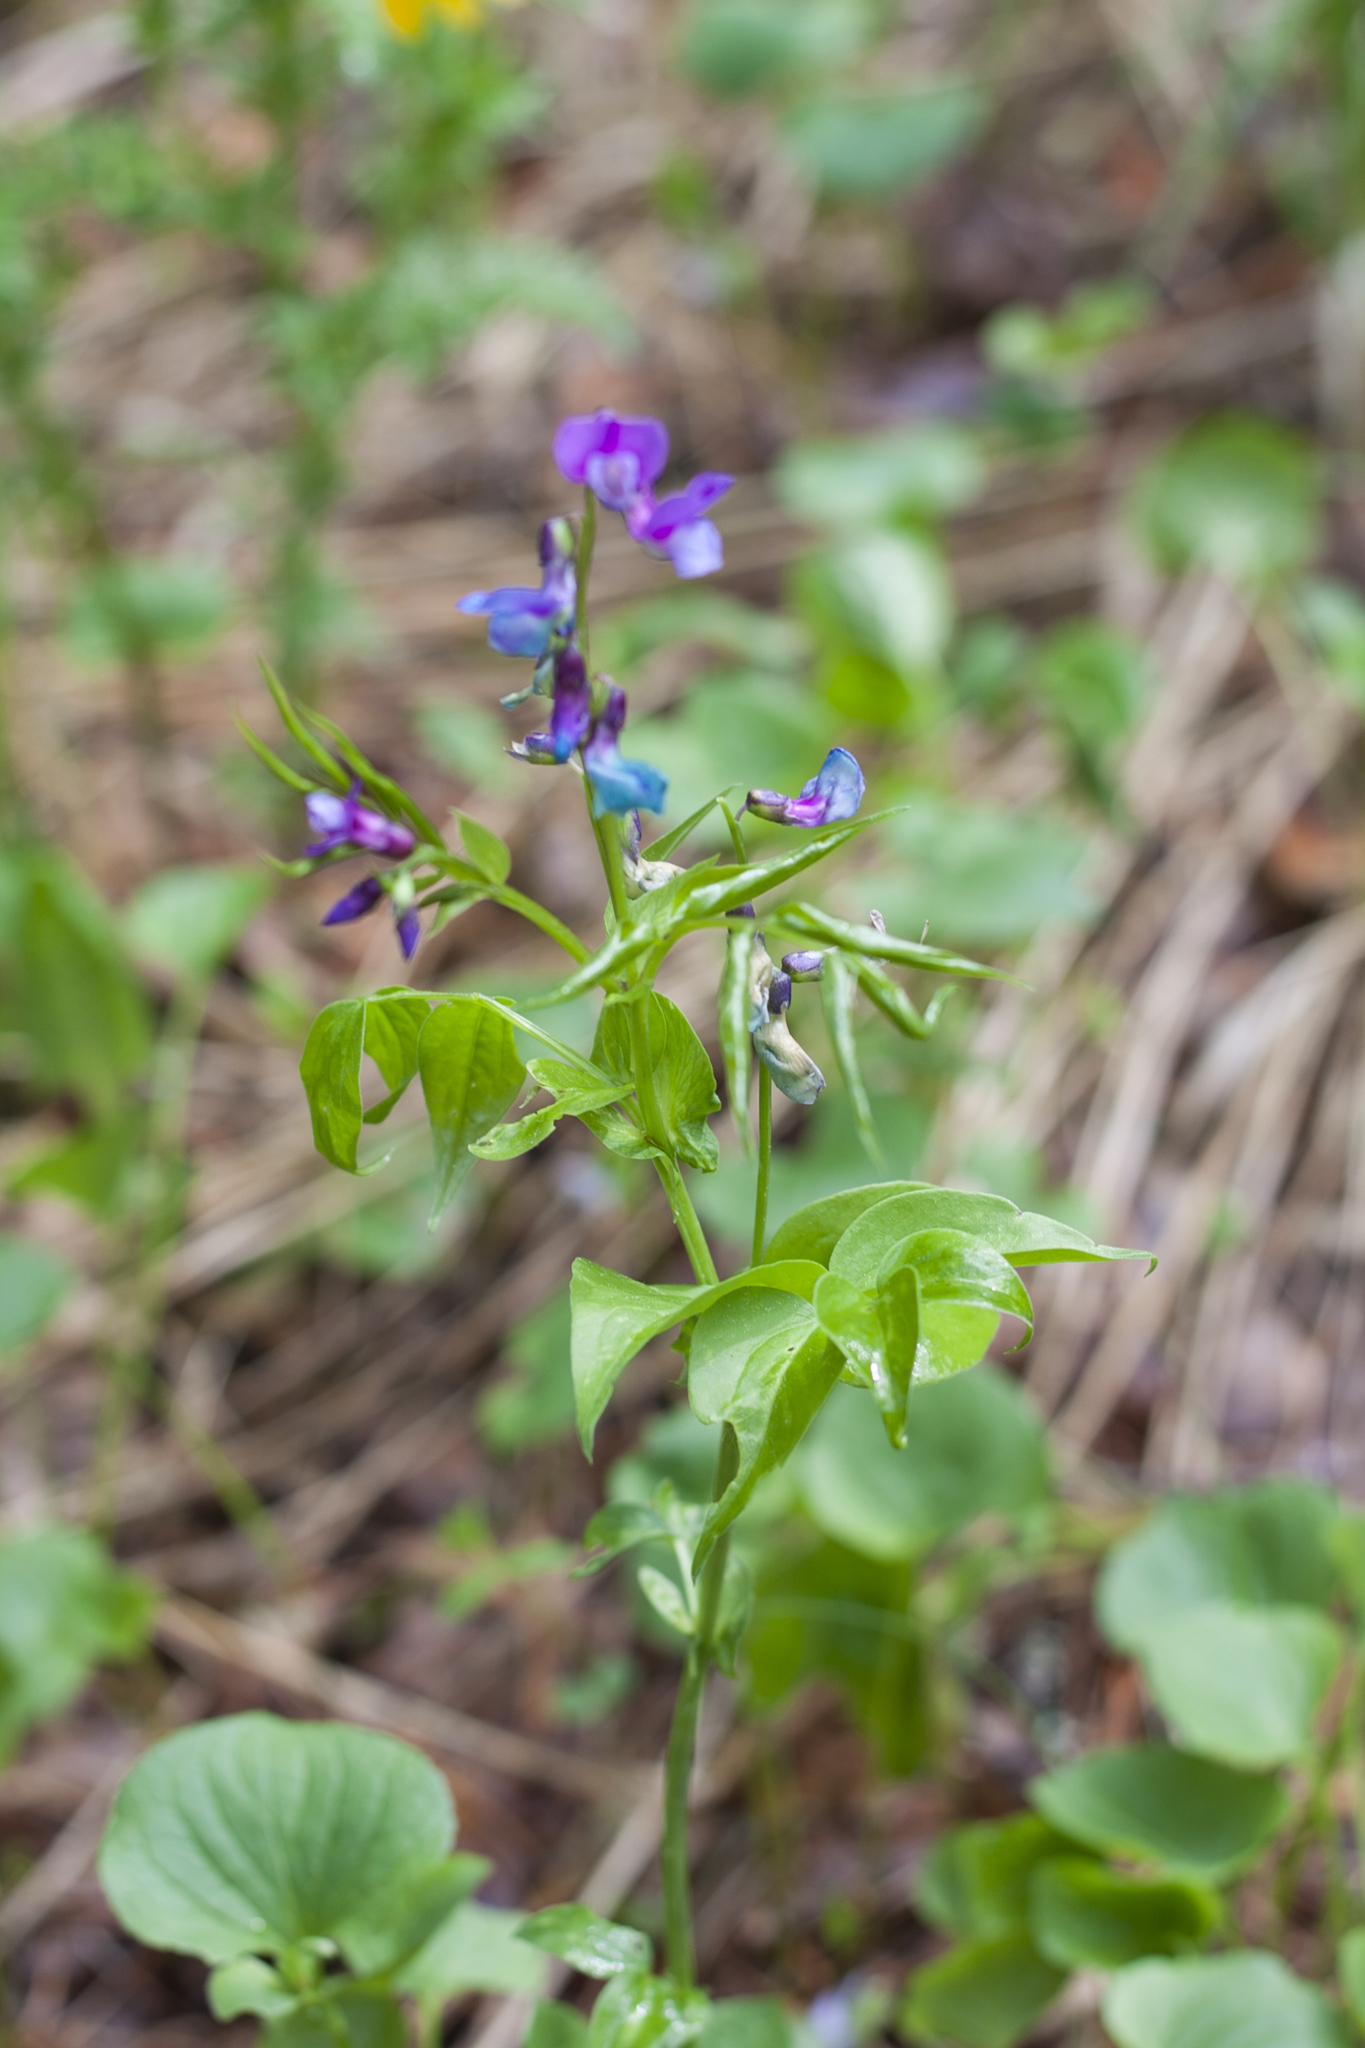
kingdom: Plantae
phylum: Tracheophyta
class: Magnoliopsida
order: Fabales
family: Fabaceae
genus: Lathyrus
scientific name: Lathyrus vernus
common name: Spring pea
